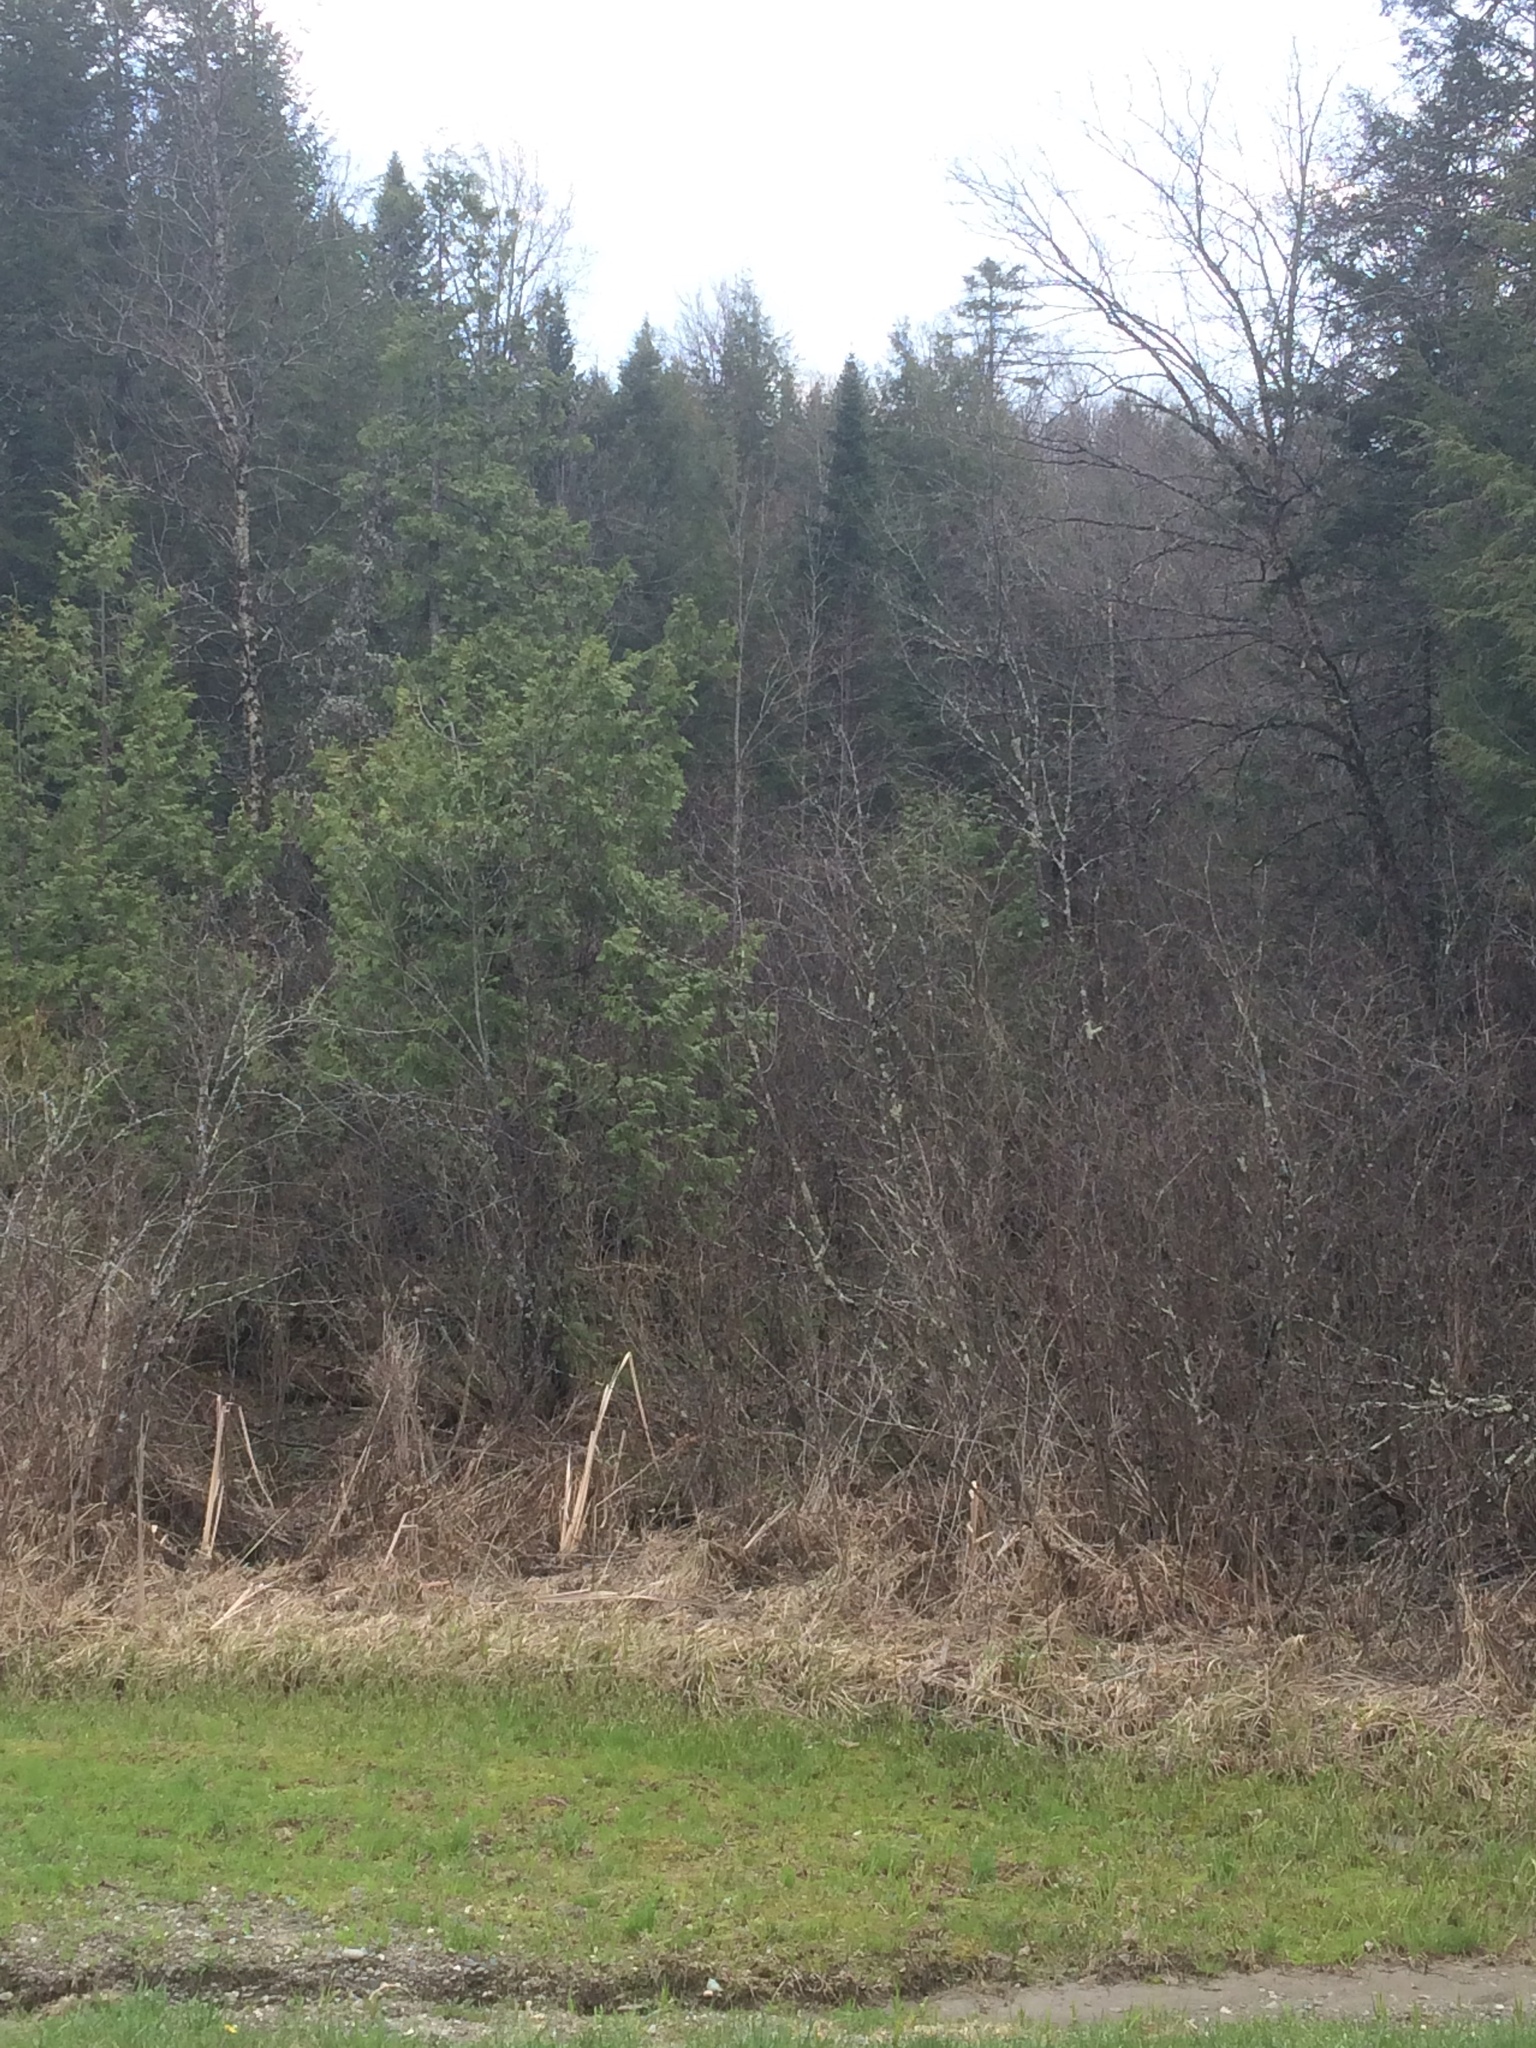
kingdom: Plantae
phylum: Tracheophyta
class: Pinopsida
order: Pinales
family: Cupressaceae
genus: Thuja
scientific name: Thuja occidentalis
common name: Northern white-cedar
